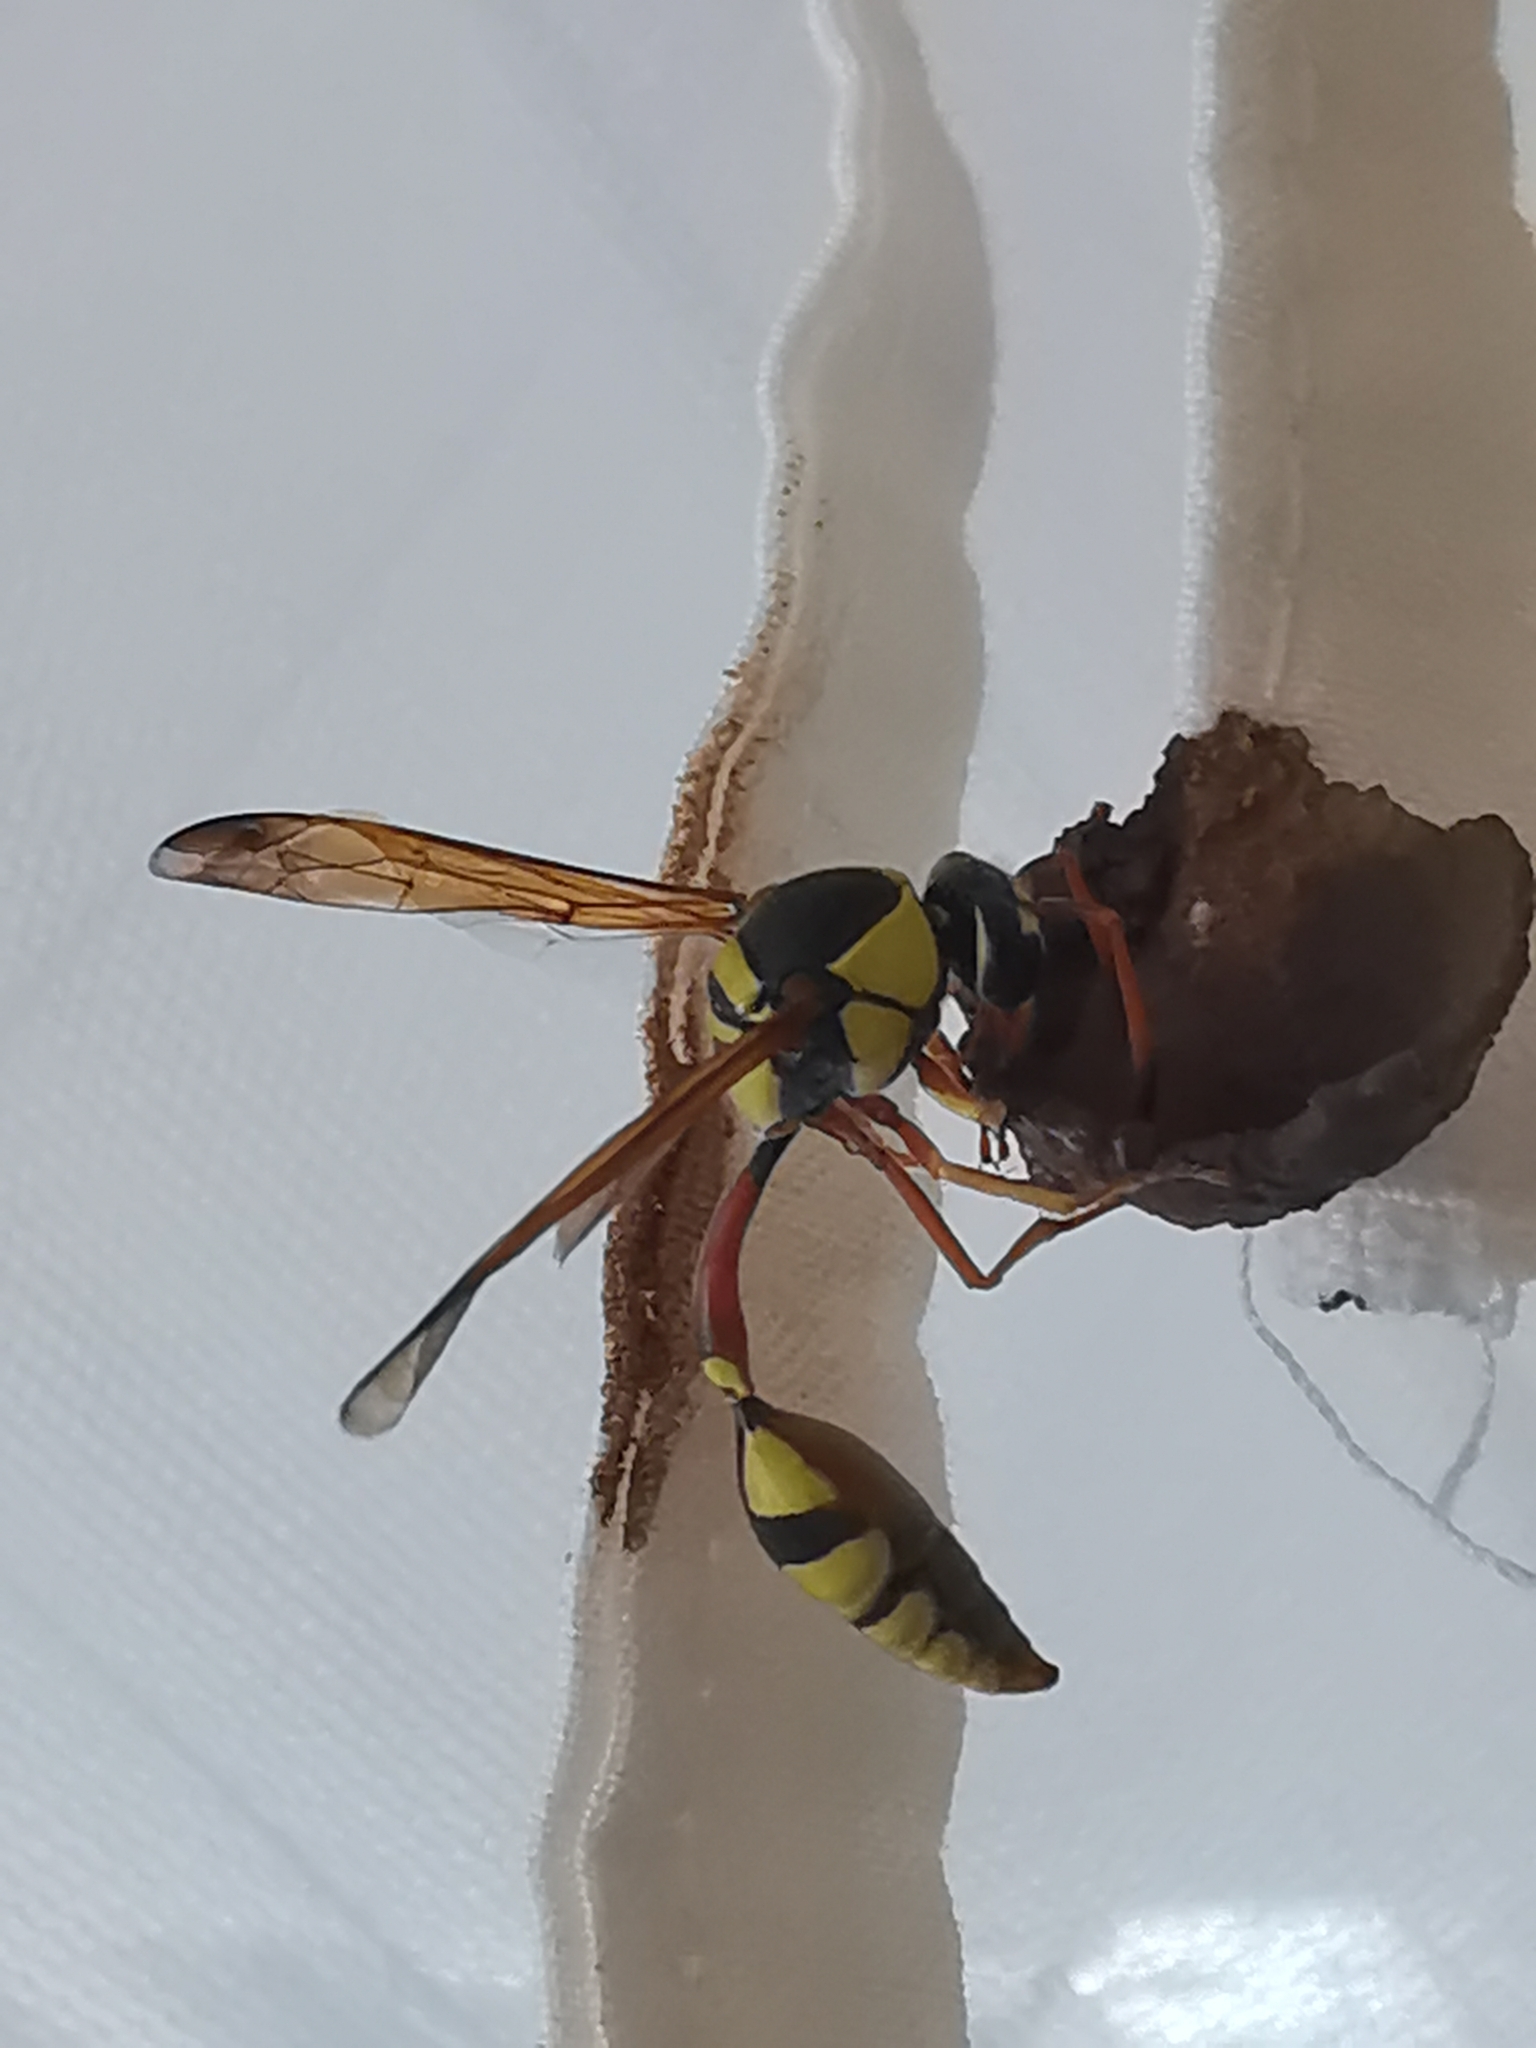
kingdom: Animalia
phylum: Arthropoda
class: Insecta
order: Hymenoptera
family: Eumenidae
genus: Delta
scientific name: Delta hottentotum
